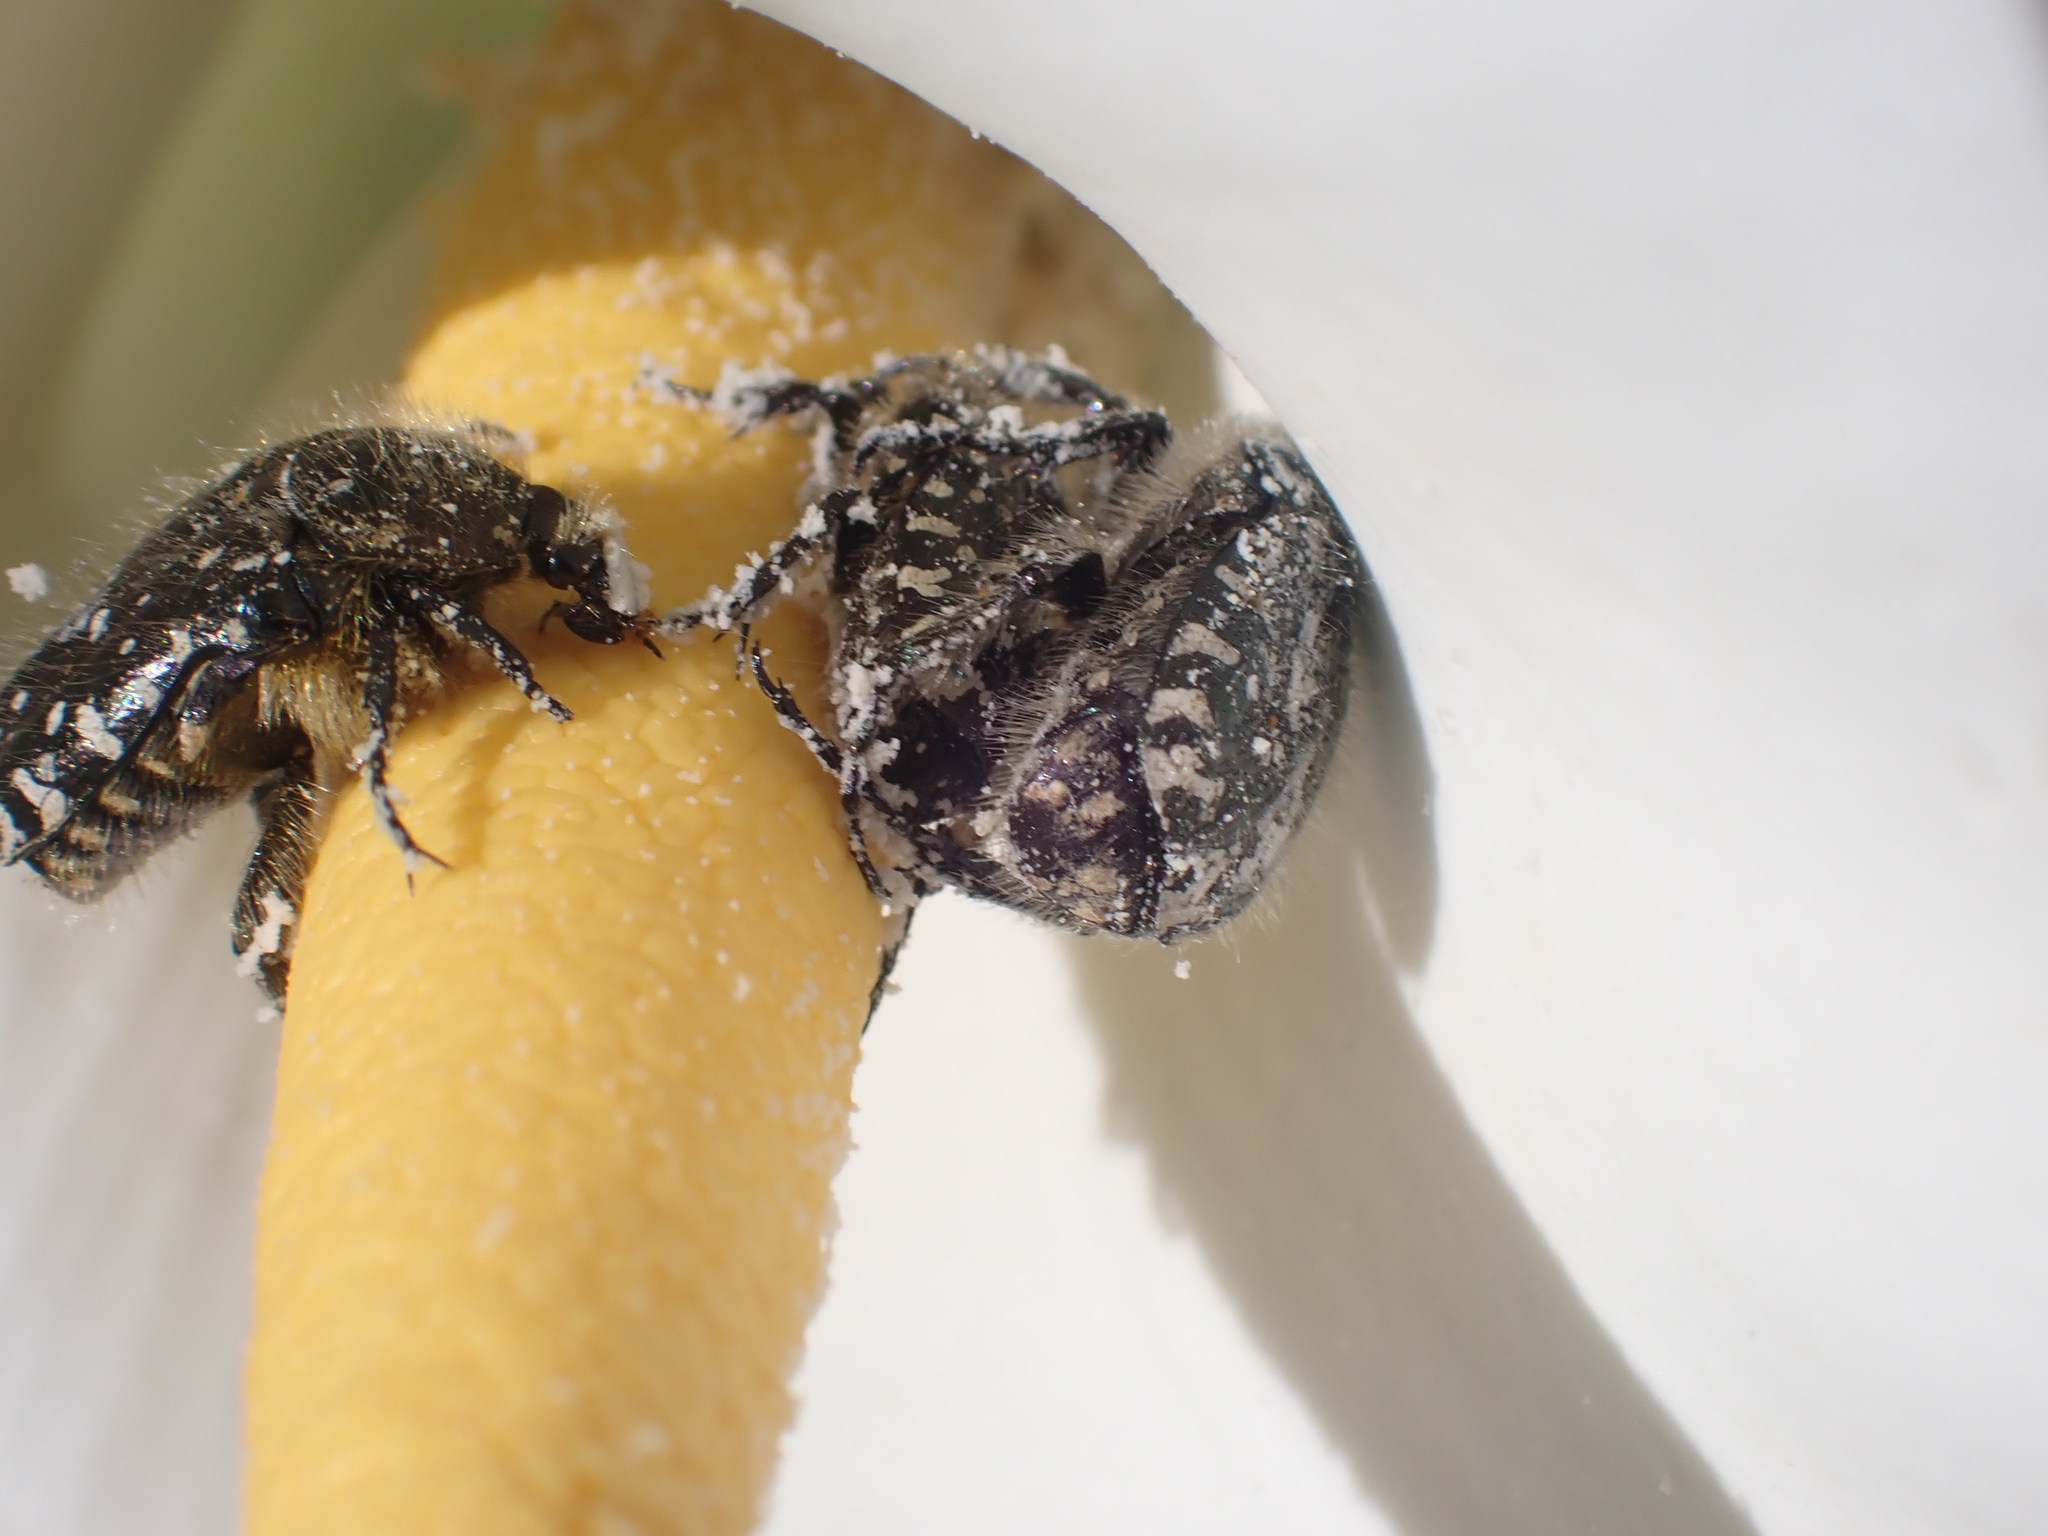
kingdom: Animalia
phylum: Arthropoda
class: Insecta
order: Coleoptera
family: Scarabaeidae
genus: Oxythyrea
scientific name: Oxythyrea funesta
